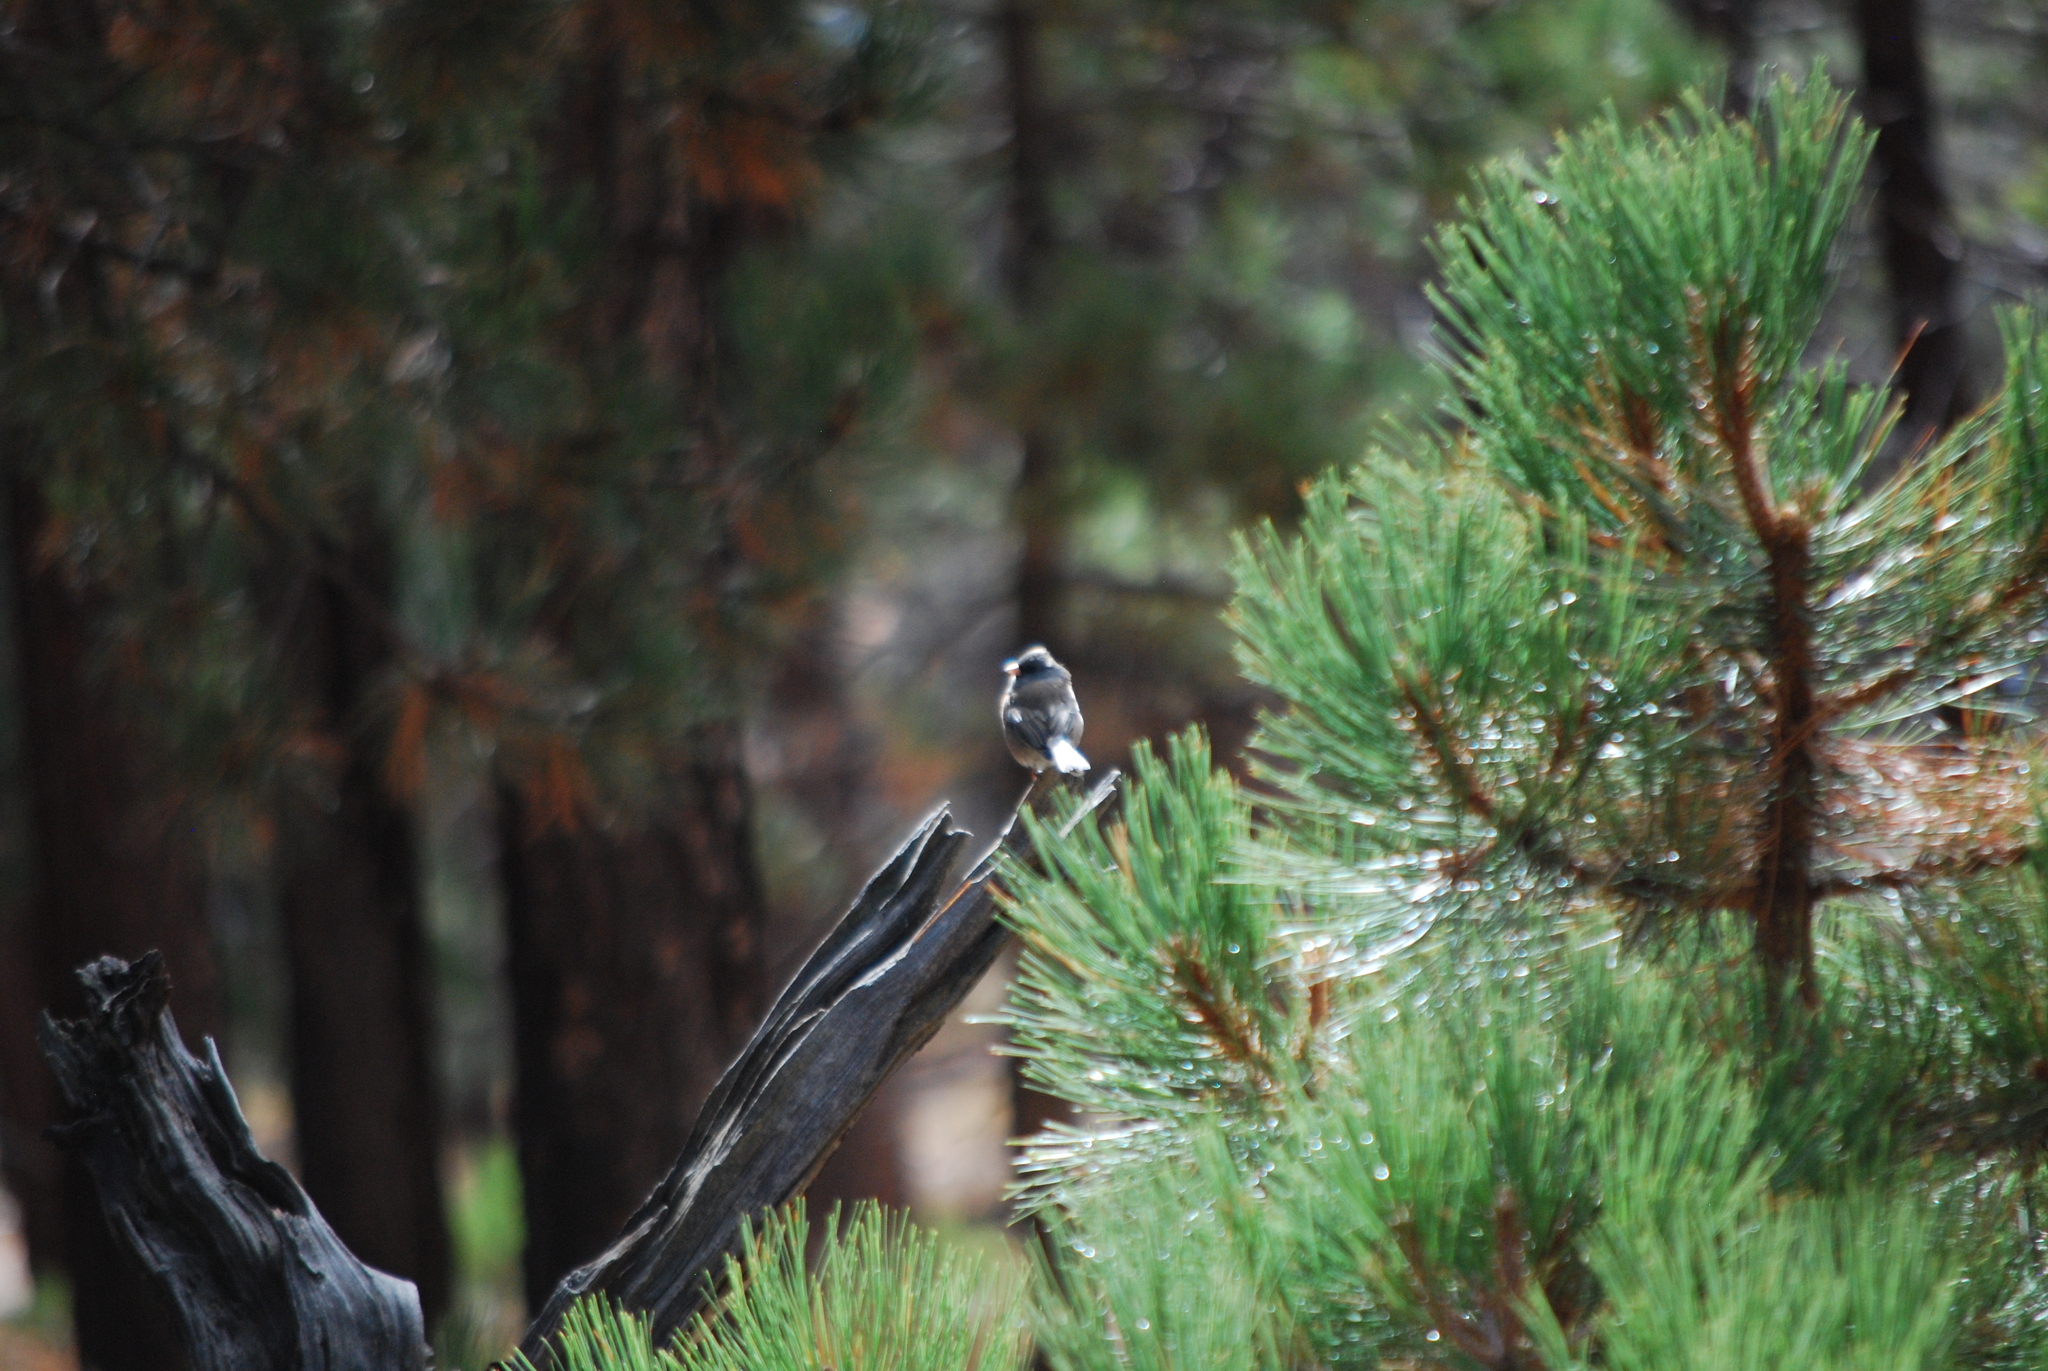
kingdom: Animalia
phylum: Chordata
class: Aves
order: Passeriformes
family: Passerellidae
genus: Junco
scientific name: Junco hyemalis
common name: Dark-eyed junco
